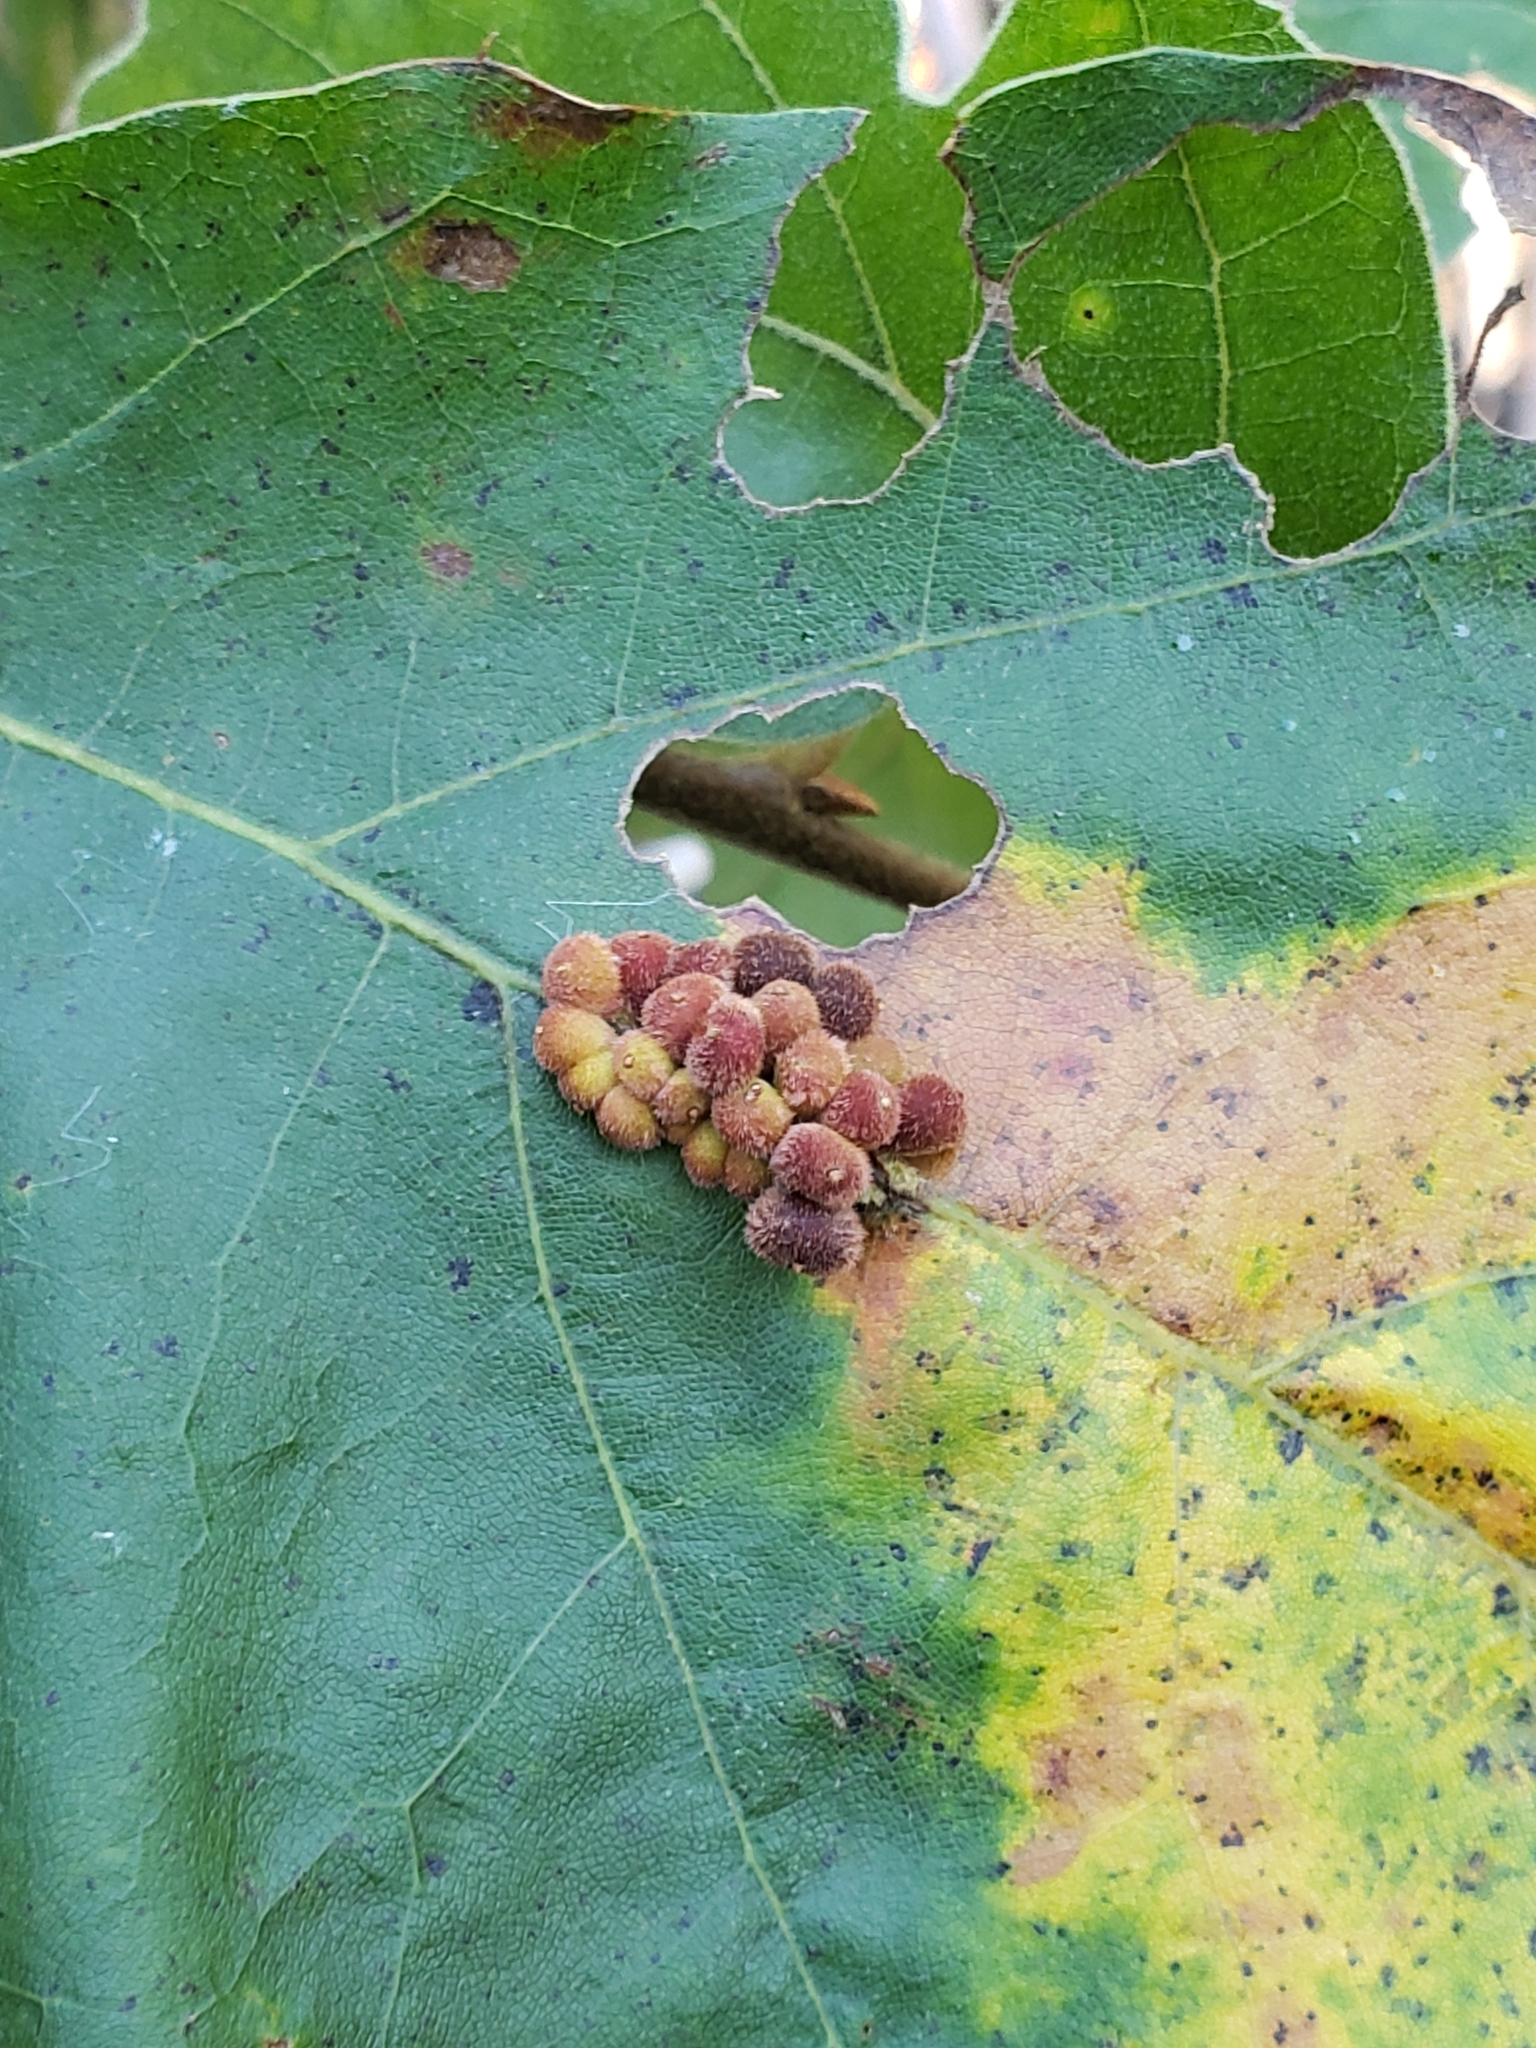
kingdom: Animalia
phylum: Arthropoda
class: Insecta
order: Hymenoptera
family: Cynipidae
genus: Callirhytis
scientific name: Callirhytis
